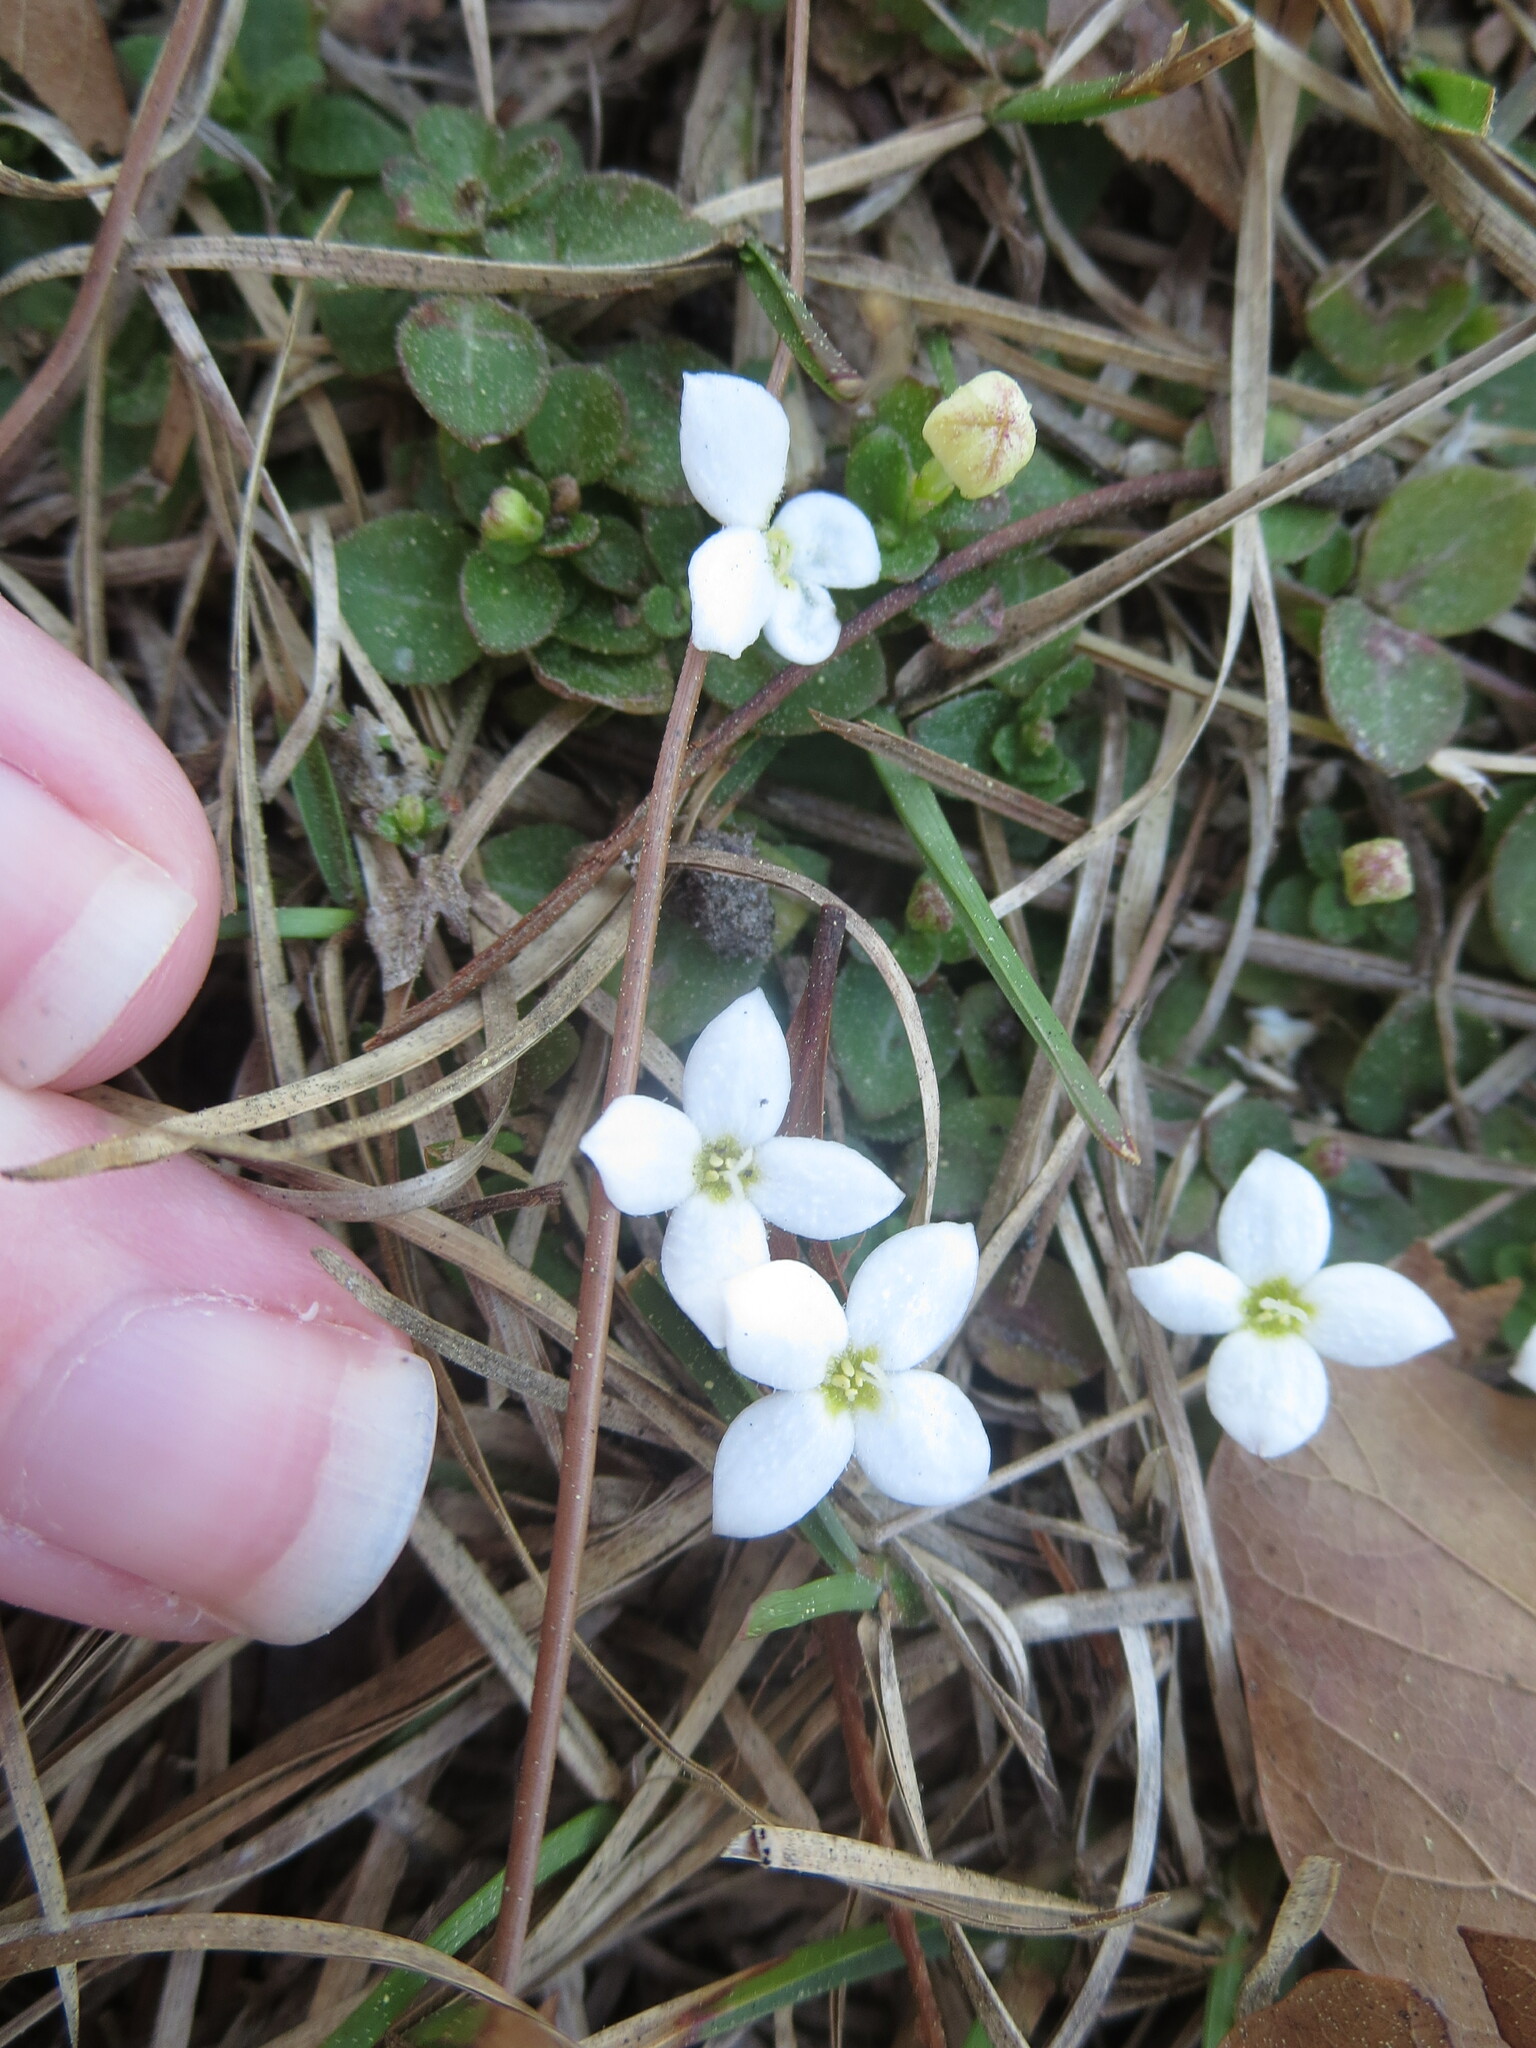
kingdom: Plantae
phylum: Tracheophyta
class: Magnoliopsida
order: Gentianales
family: Rubiaceae
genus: Houstonia
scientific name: Houstonia procumbens
